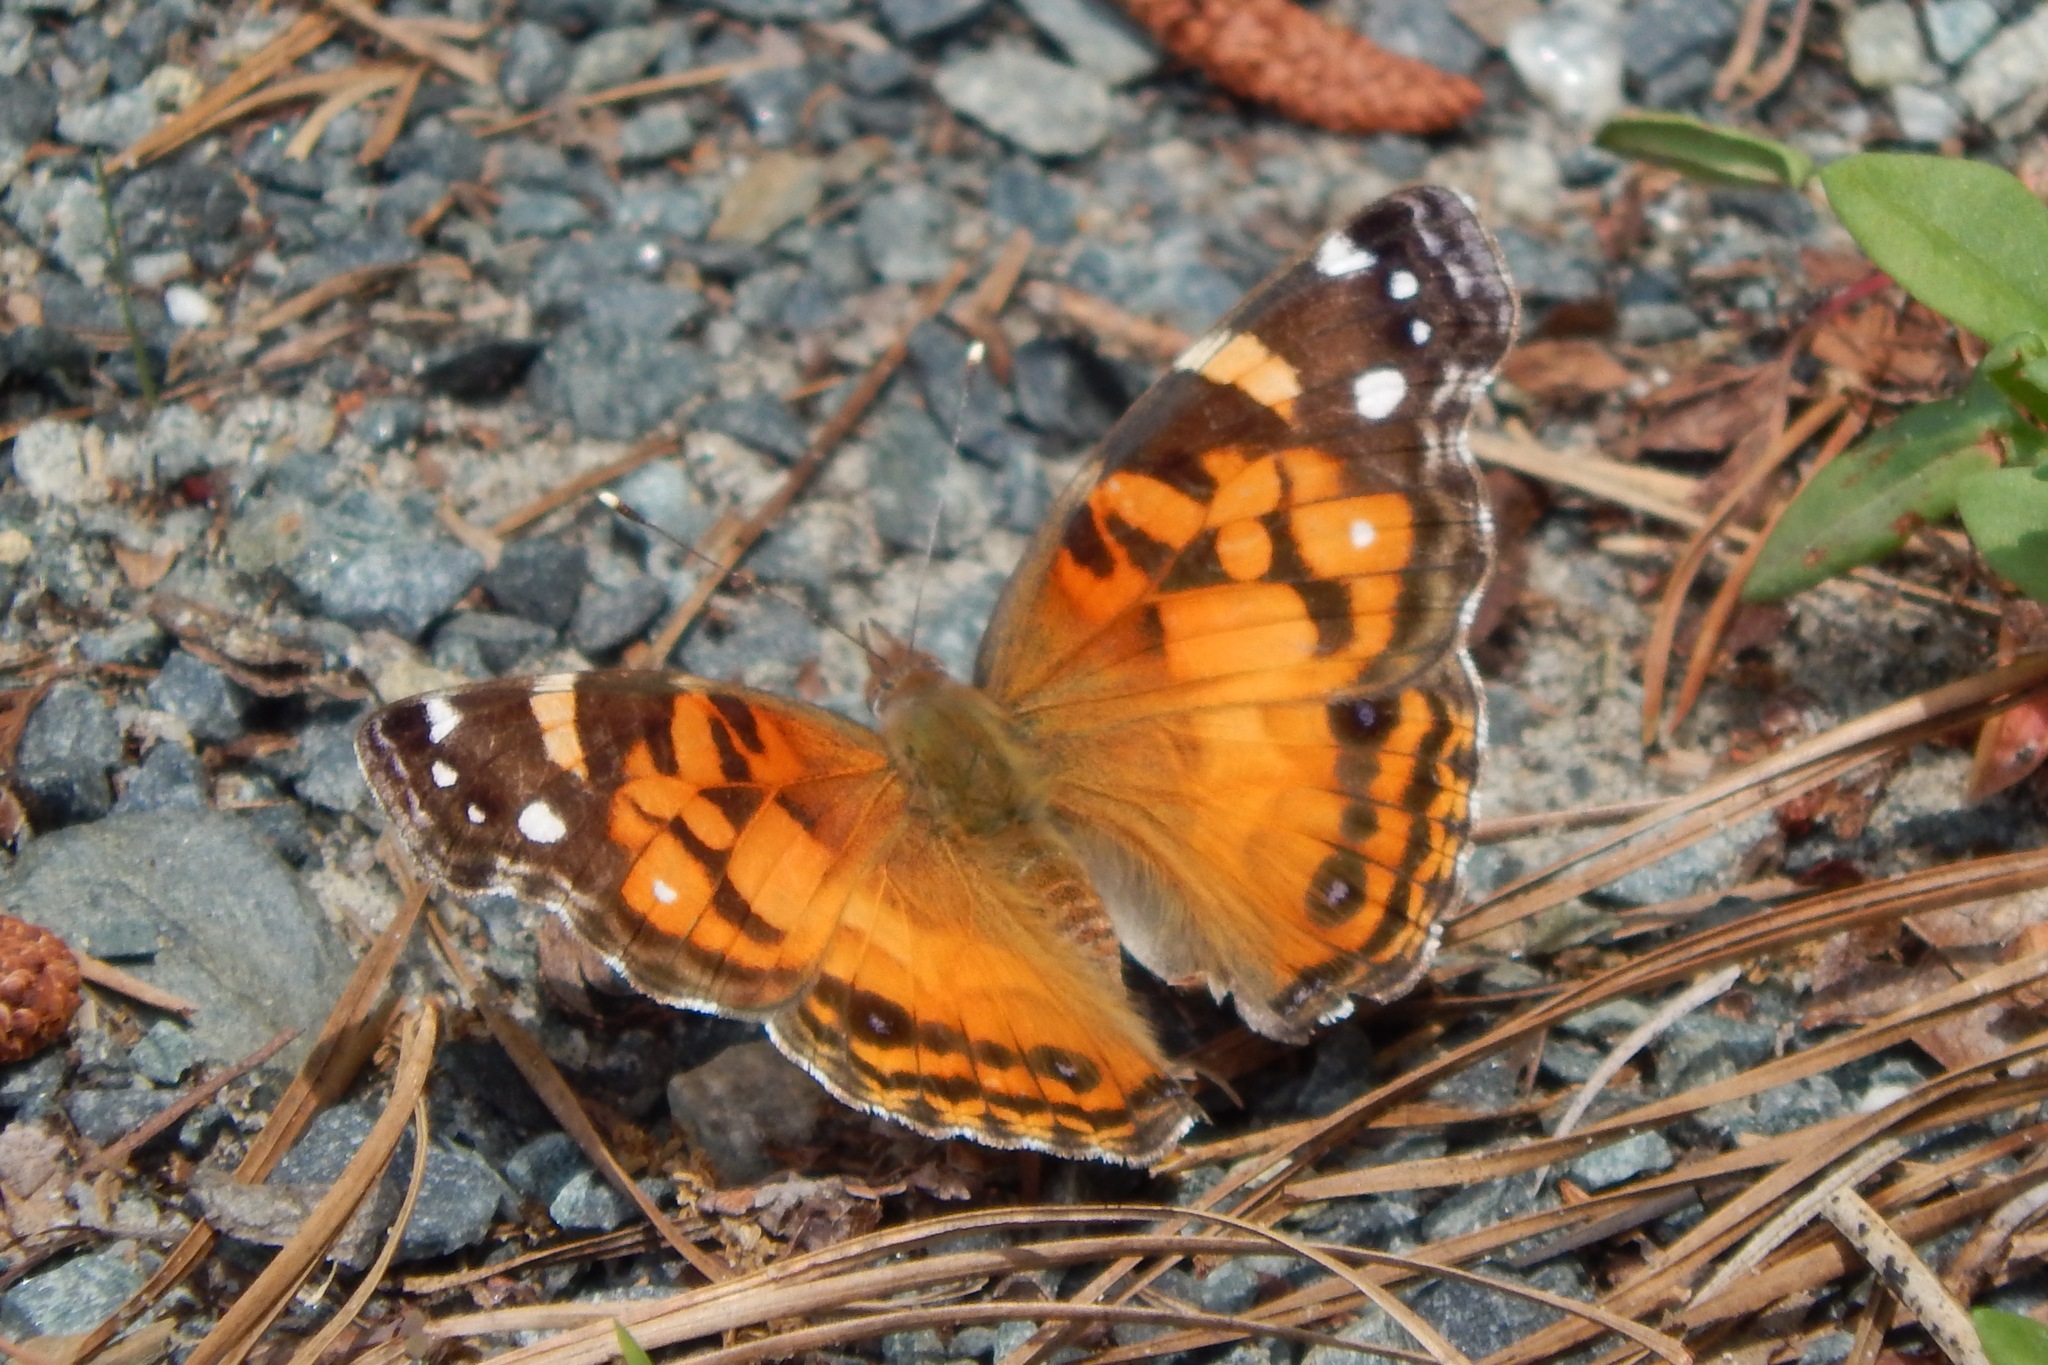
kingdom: Animalia
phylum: Arthropoda
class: Insecta
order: Lepidoptera
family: Nymphalidae
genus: Vanessa
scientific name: Vanessa virginiensis
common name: American lady
